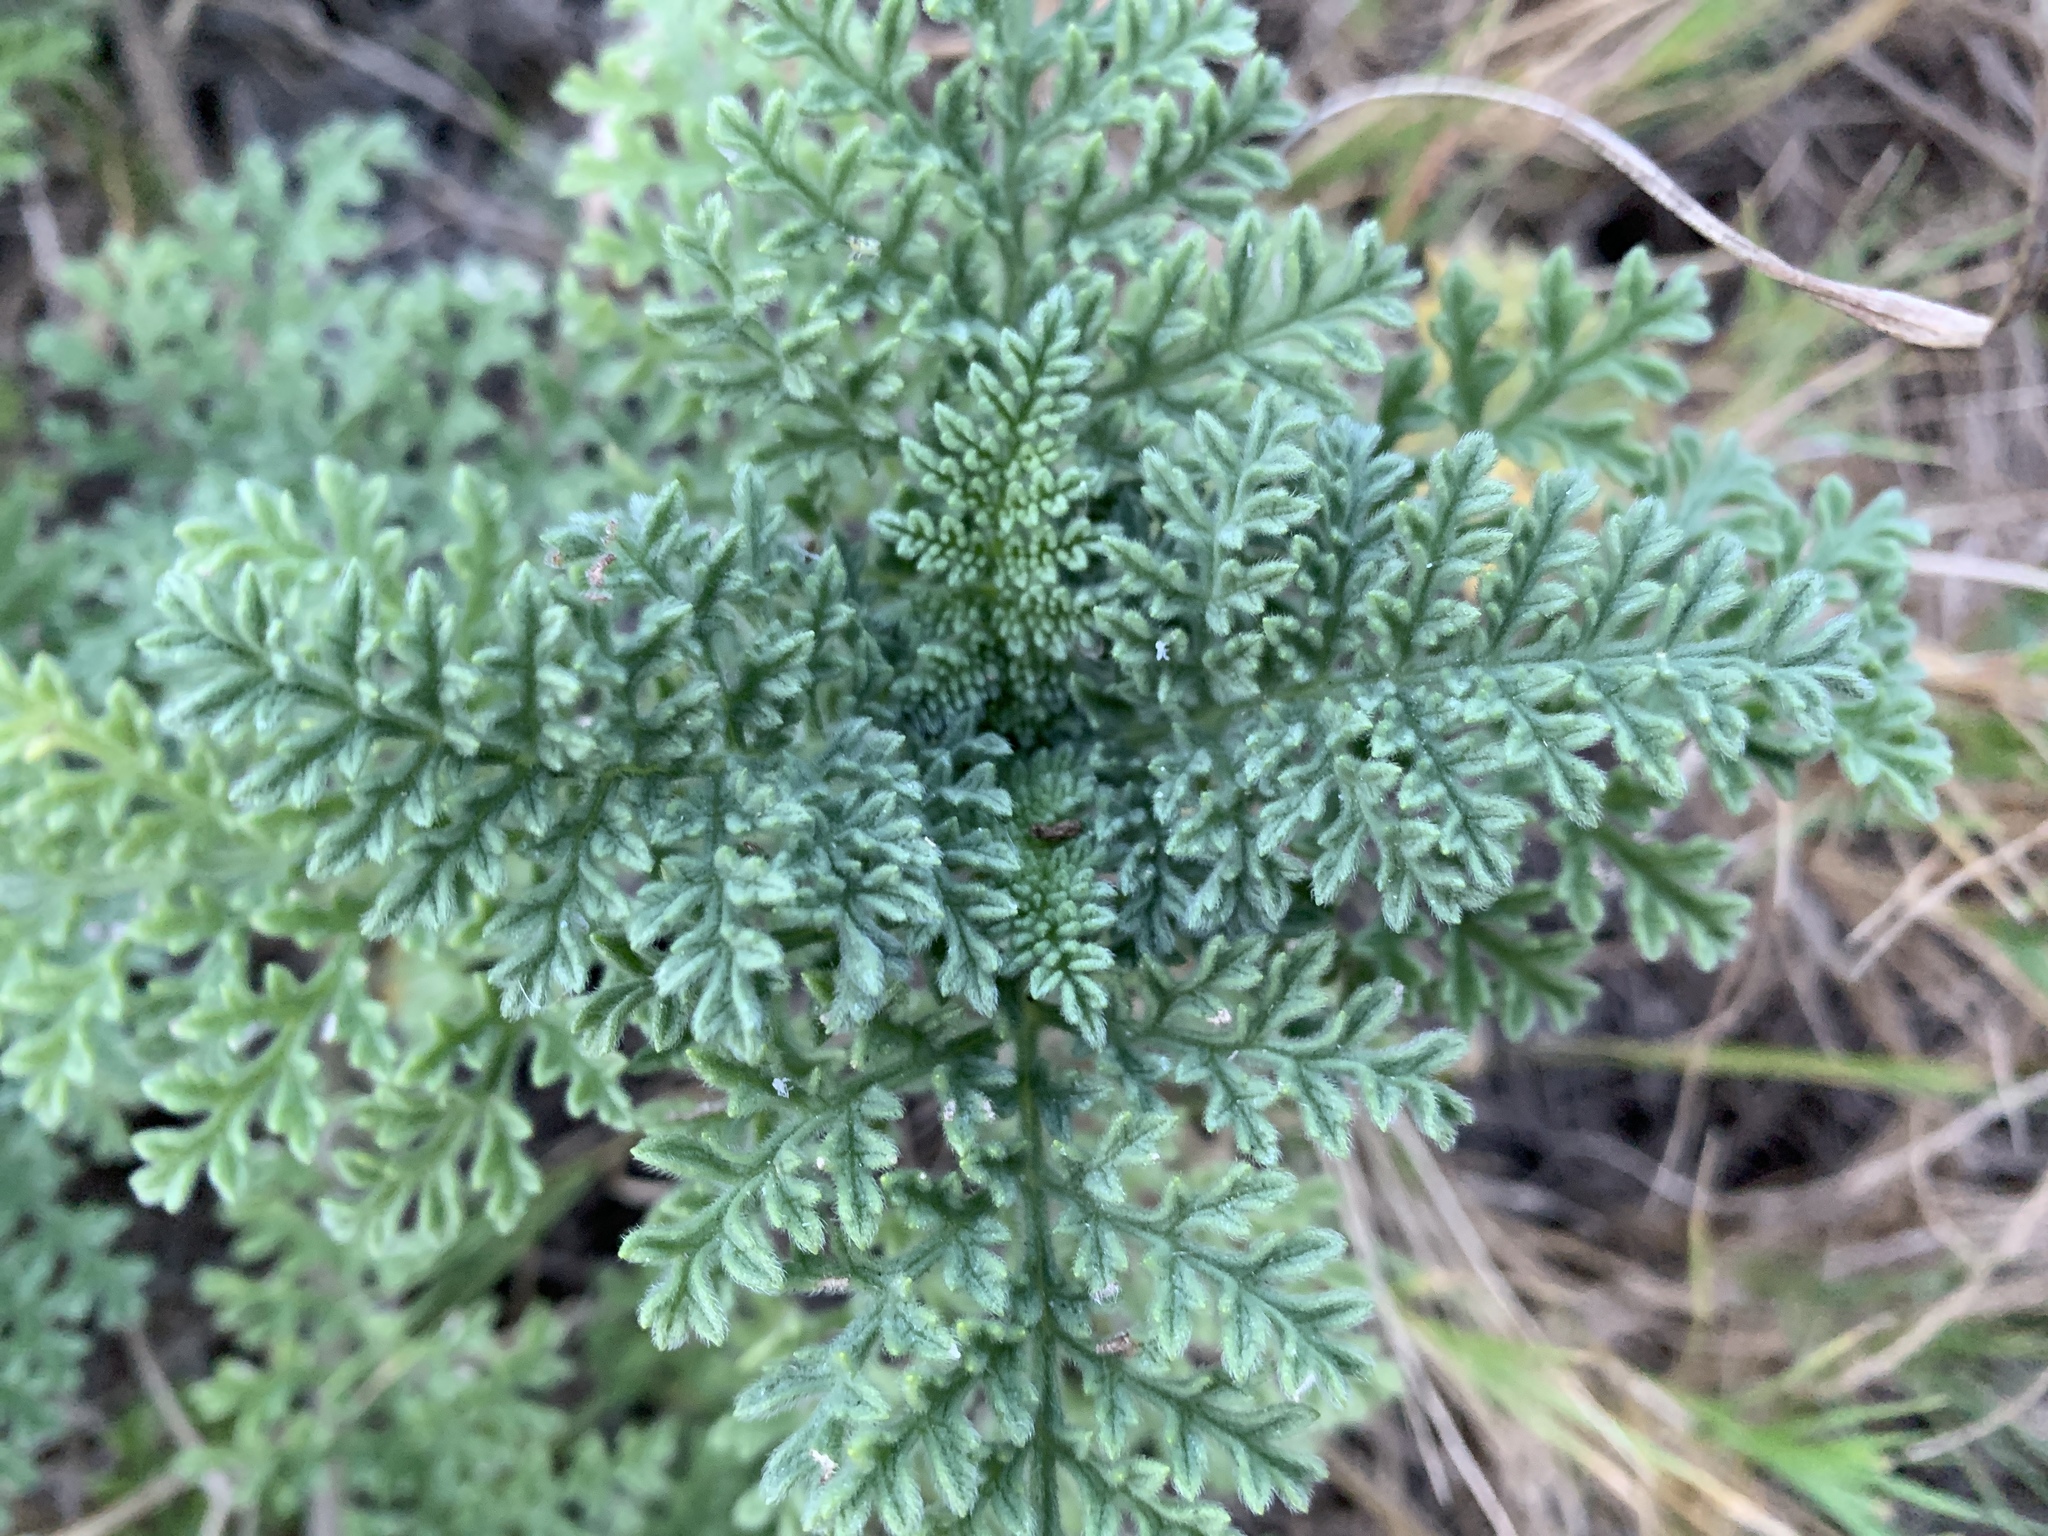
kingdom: Plantae
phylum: Tracheophyta
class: Magnoliopsida
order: Asterales
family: Asteraceae
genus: Ambrosia
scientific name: Ambrosia hispida
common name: Coastal ragweed
